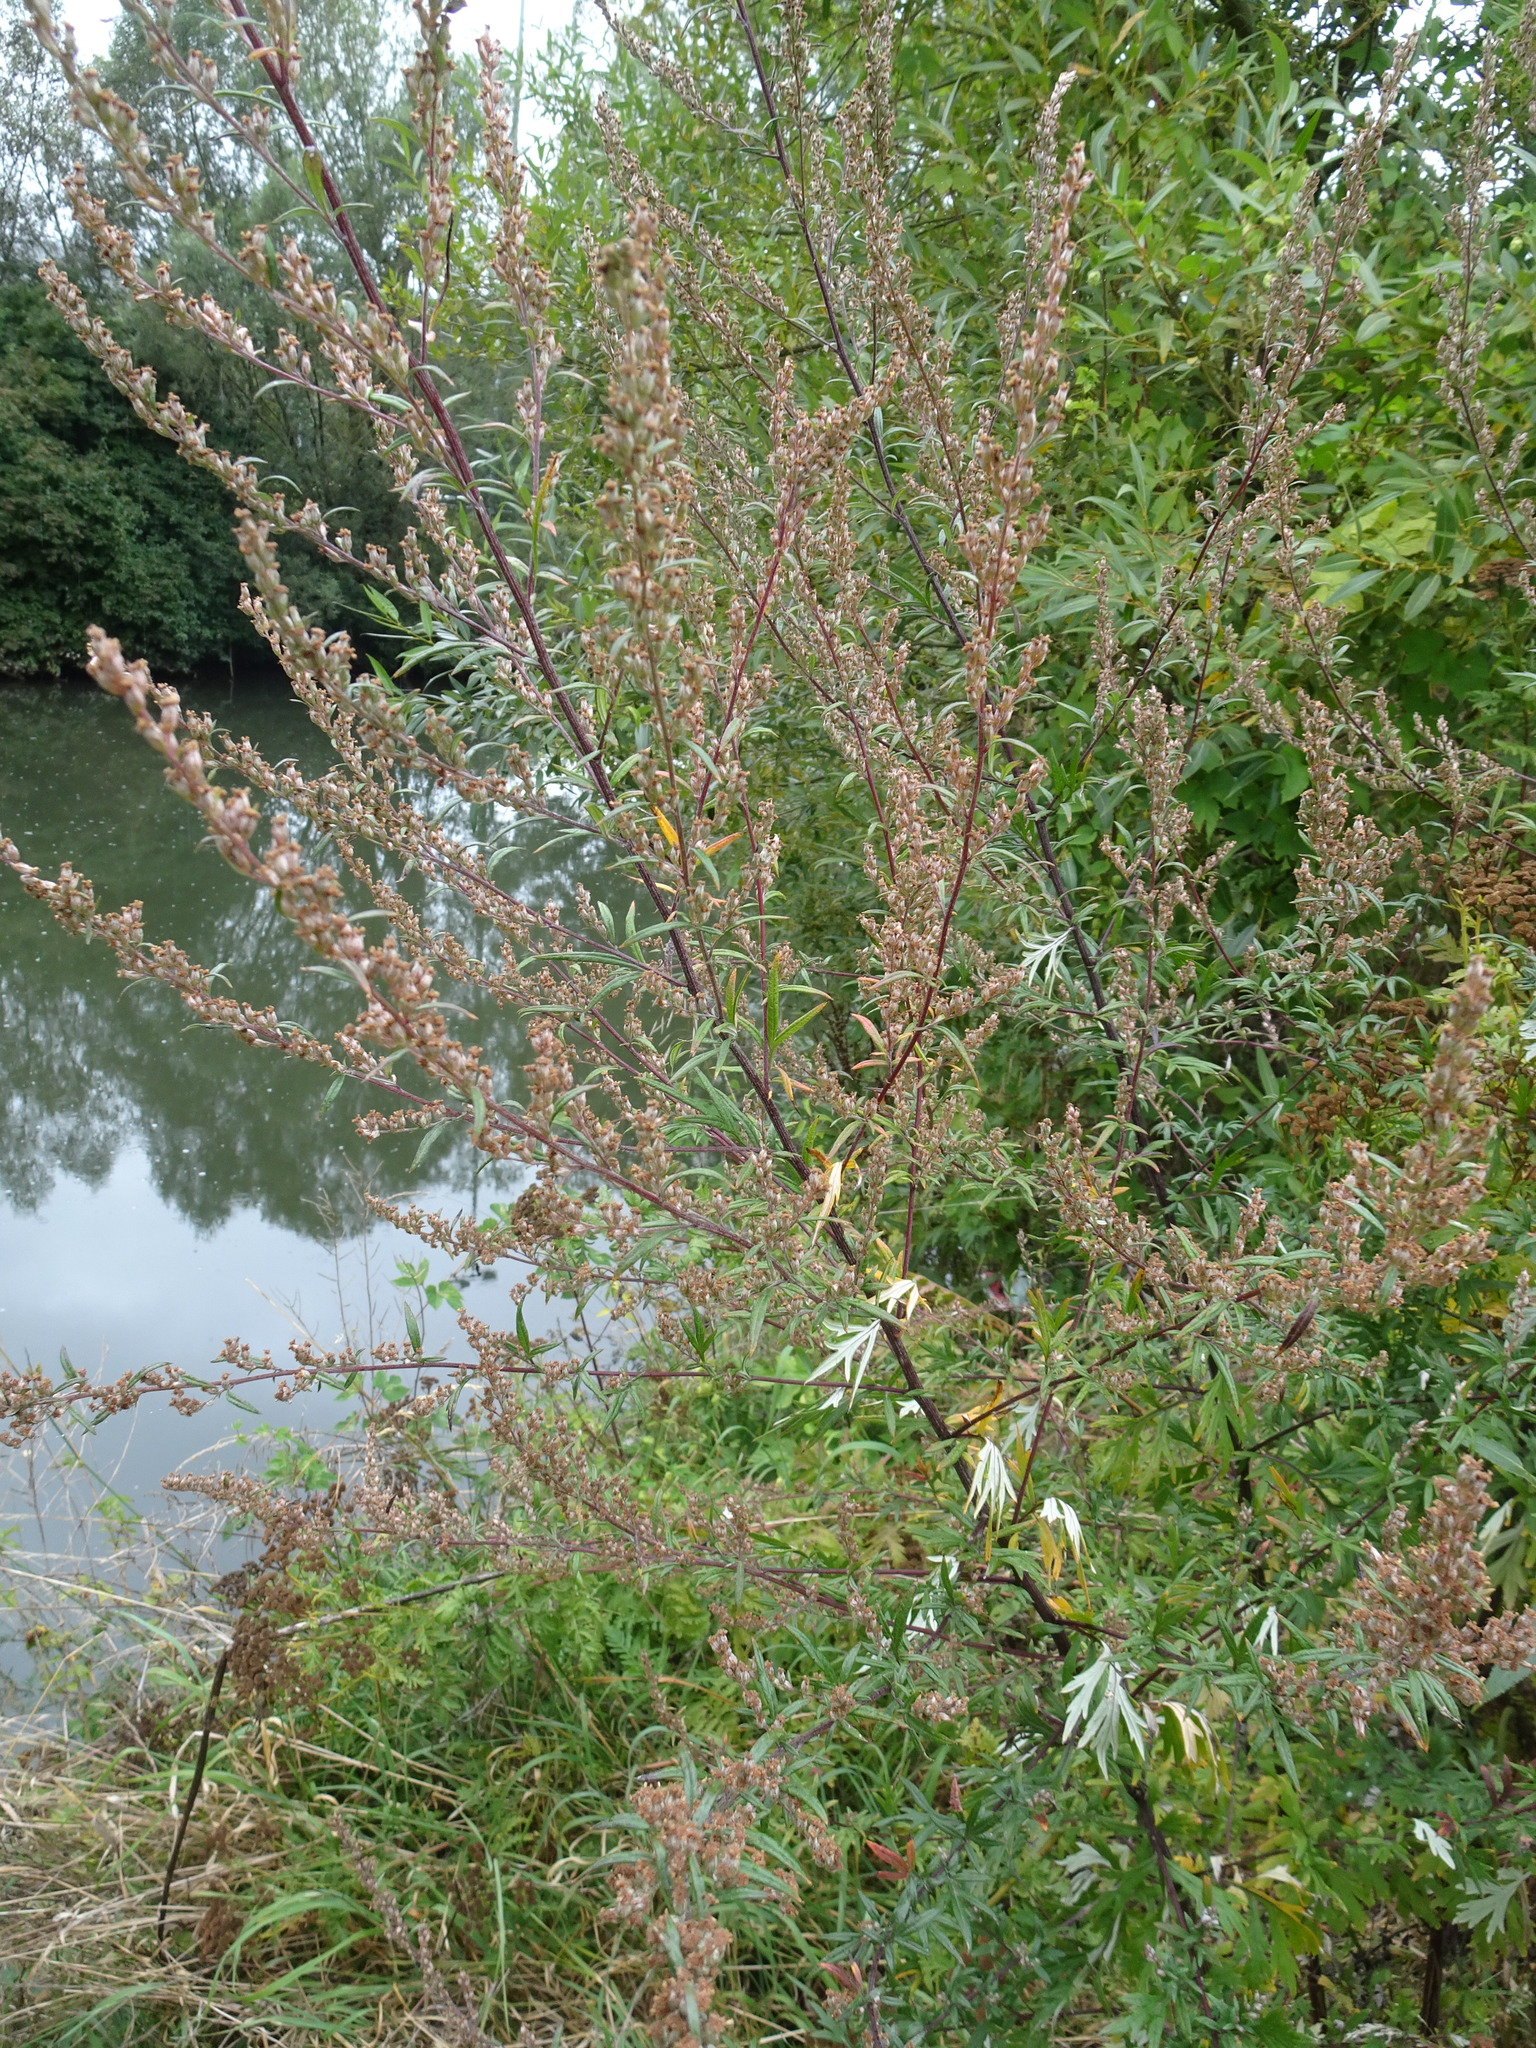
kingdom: Plantae
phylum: Tracheophyta
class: Magnoliopsida
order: Asterales
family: Asteraceae
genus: Artemisia
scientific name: Artemisia vulgaris
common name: Mugwort
